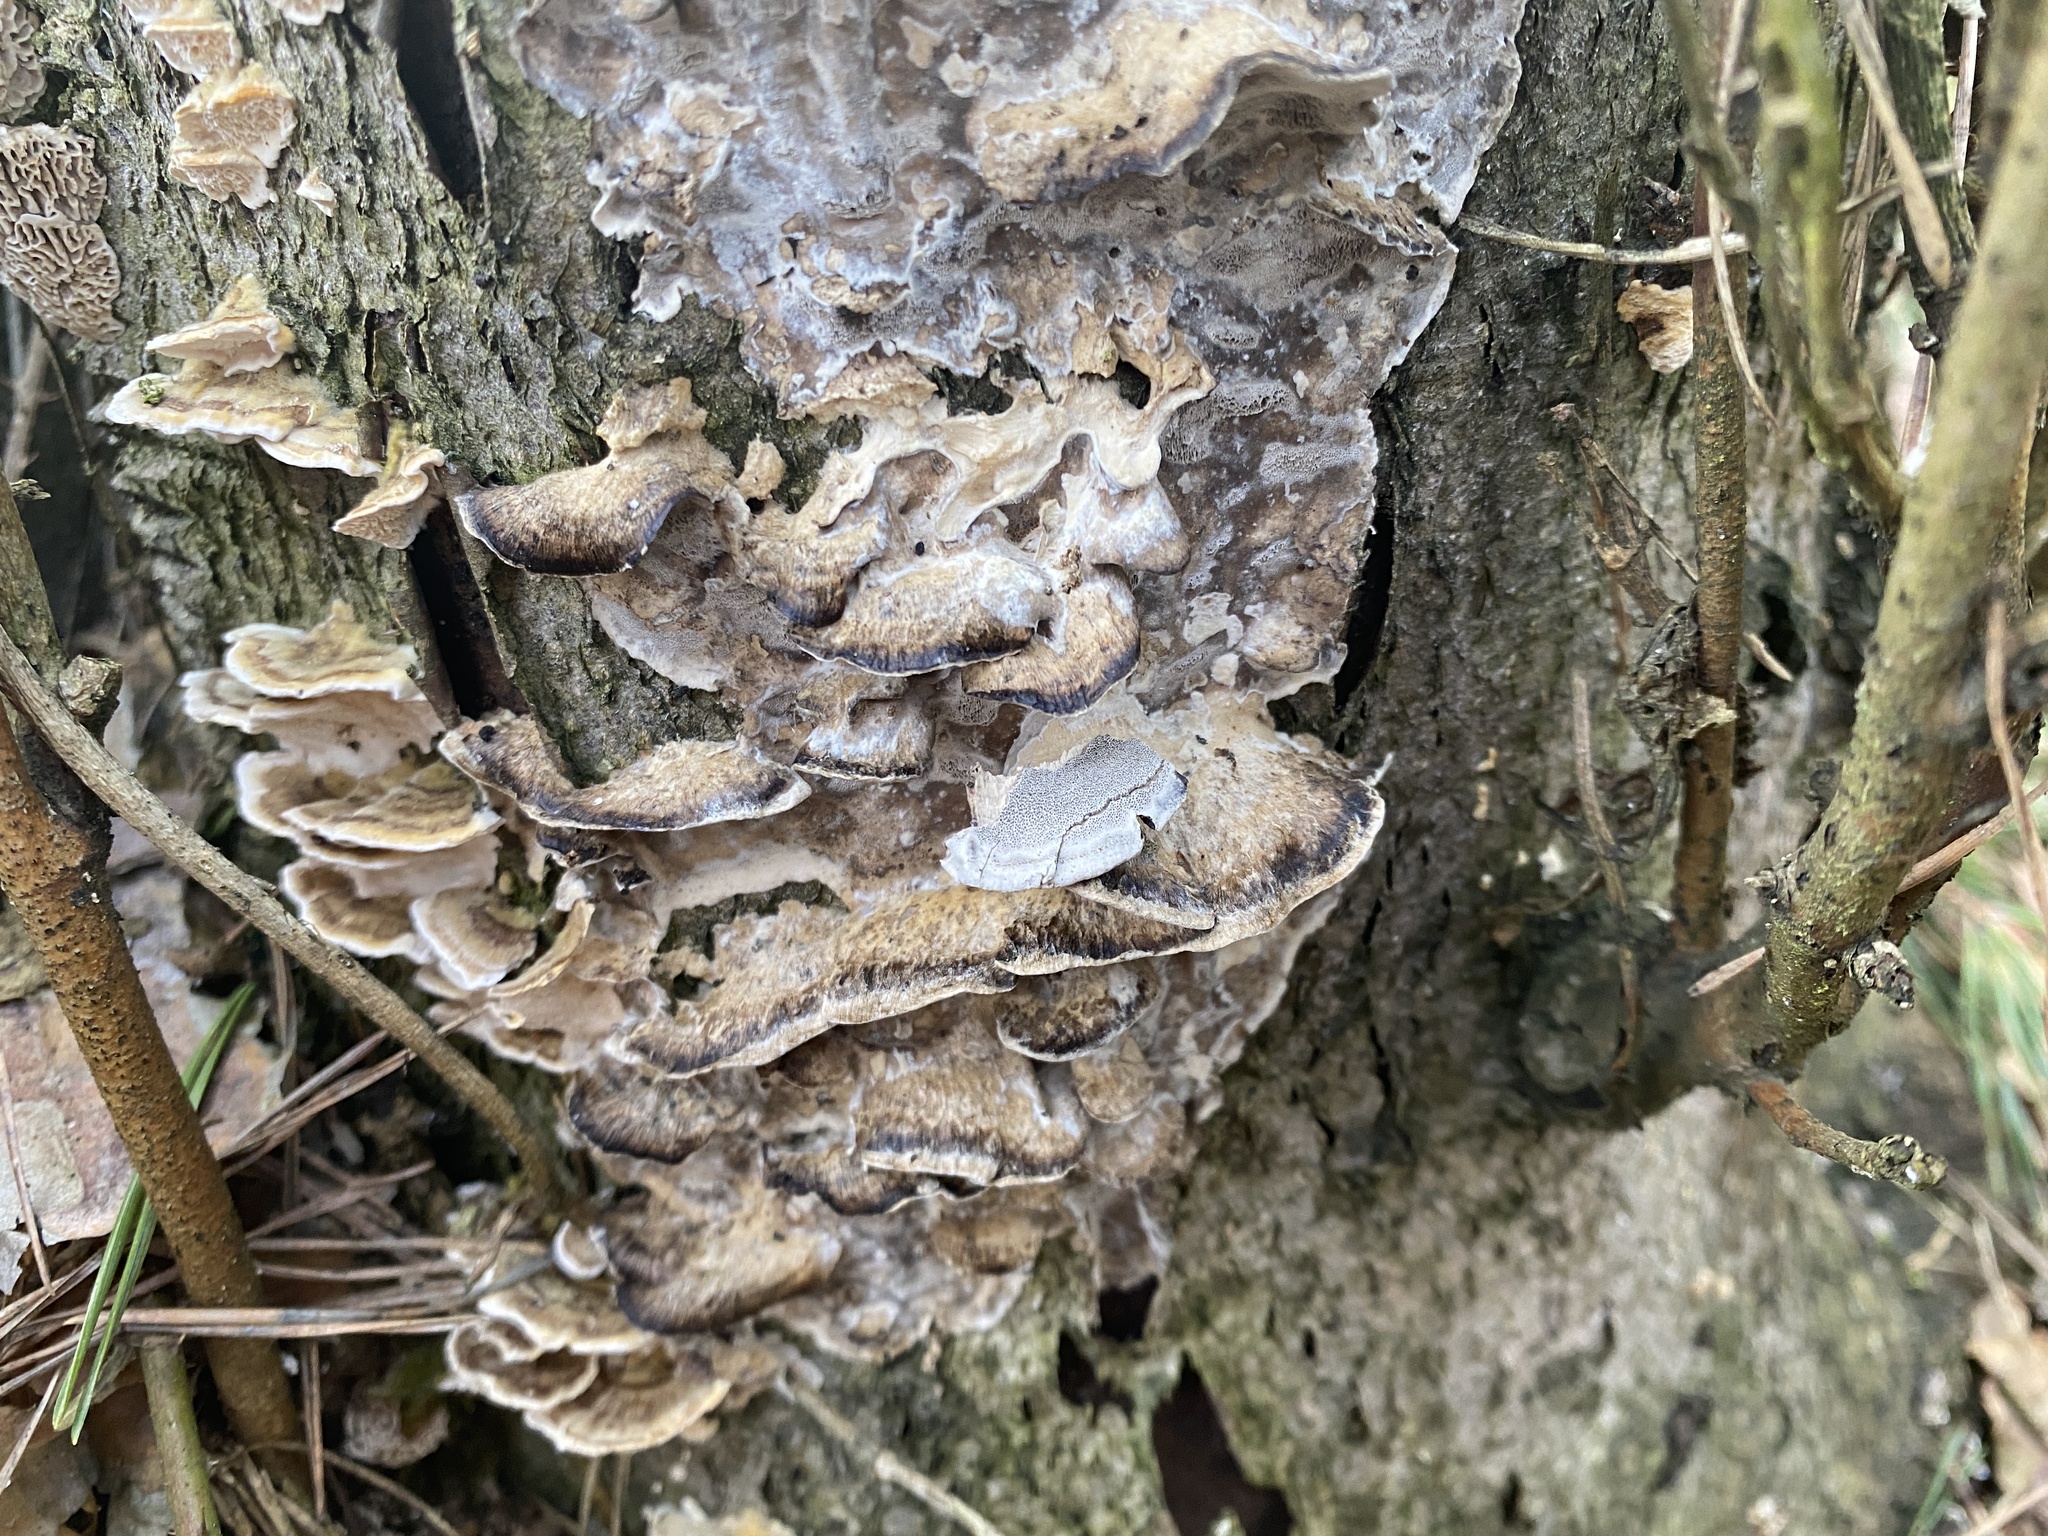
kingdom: Fungi
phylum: Basidiomycota
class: Agaricomycetes
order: Polyporales
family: Phanerochaetaceae
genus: Bjerkandera
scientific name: Bjerkandera adusta
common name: Smoky bracket
